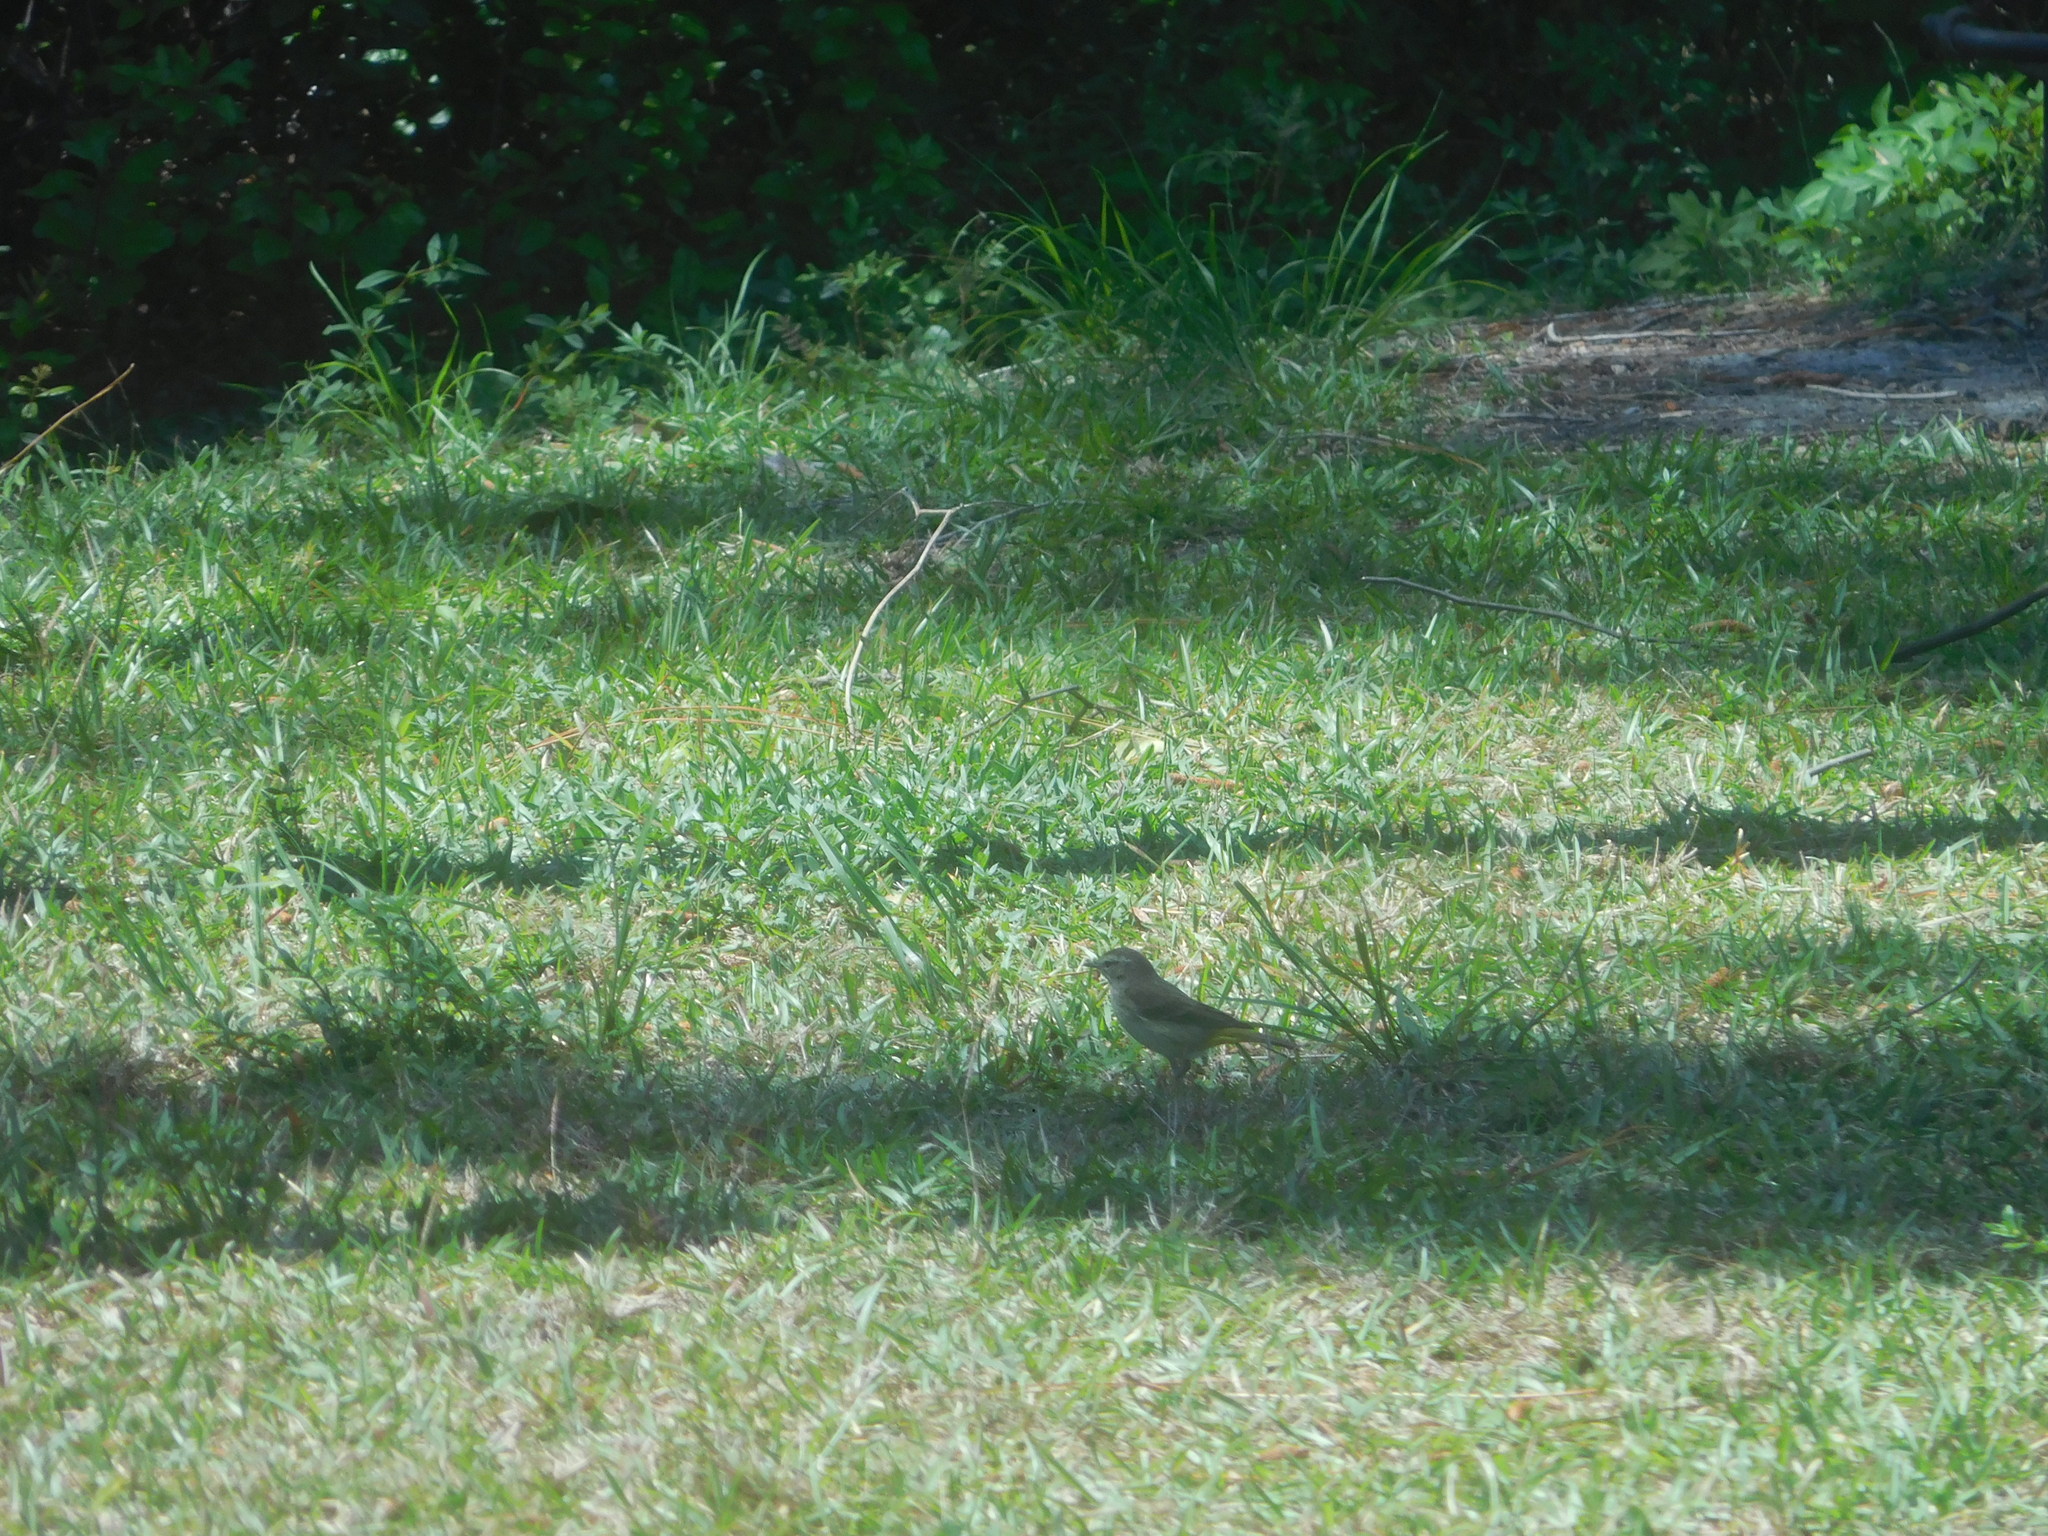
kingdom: Animalia
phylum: Chordata
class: Aves
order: Passeriformes
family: Parulidae
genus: Setophaga
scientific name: Setophaga palmarum
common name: Palm warbler
